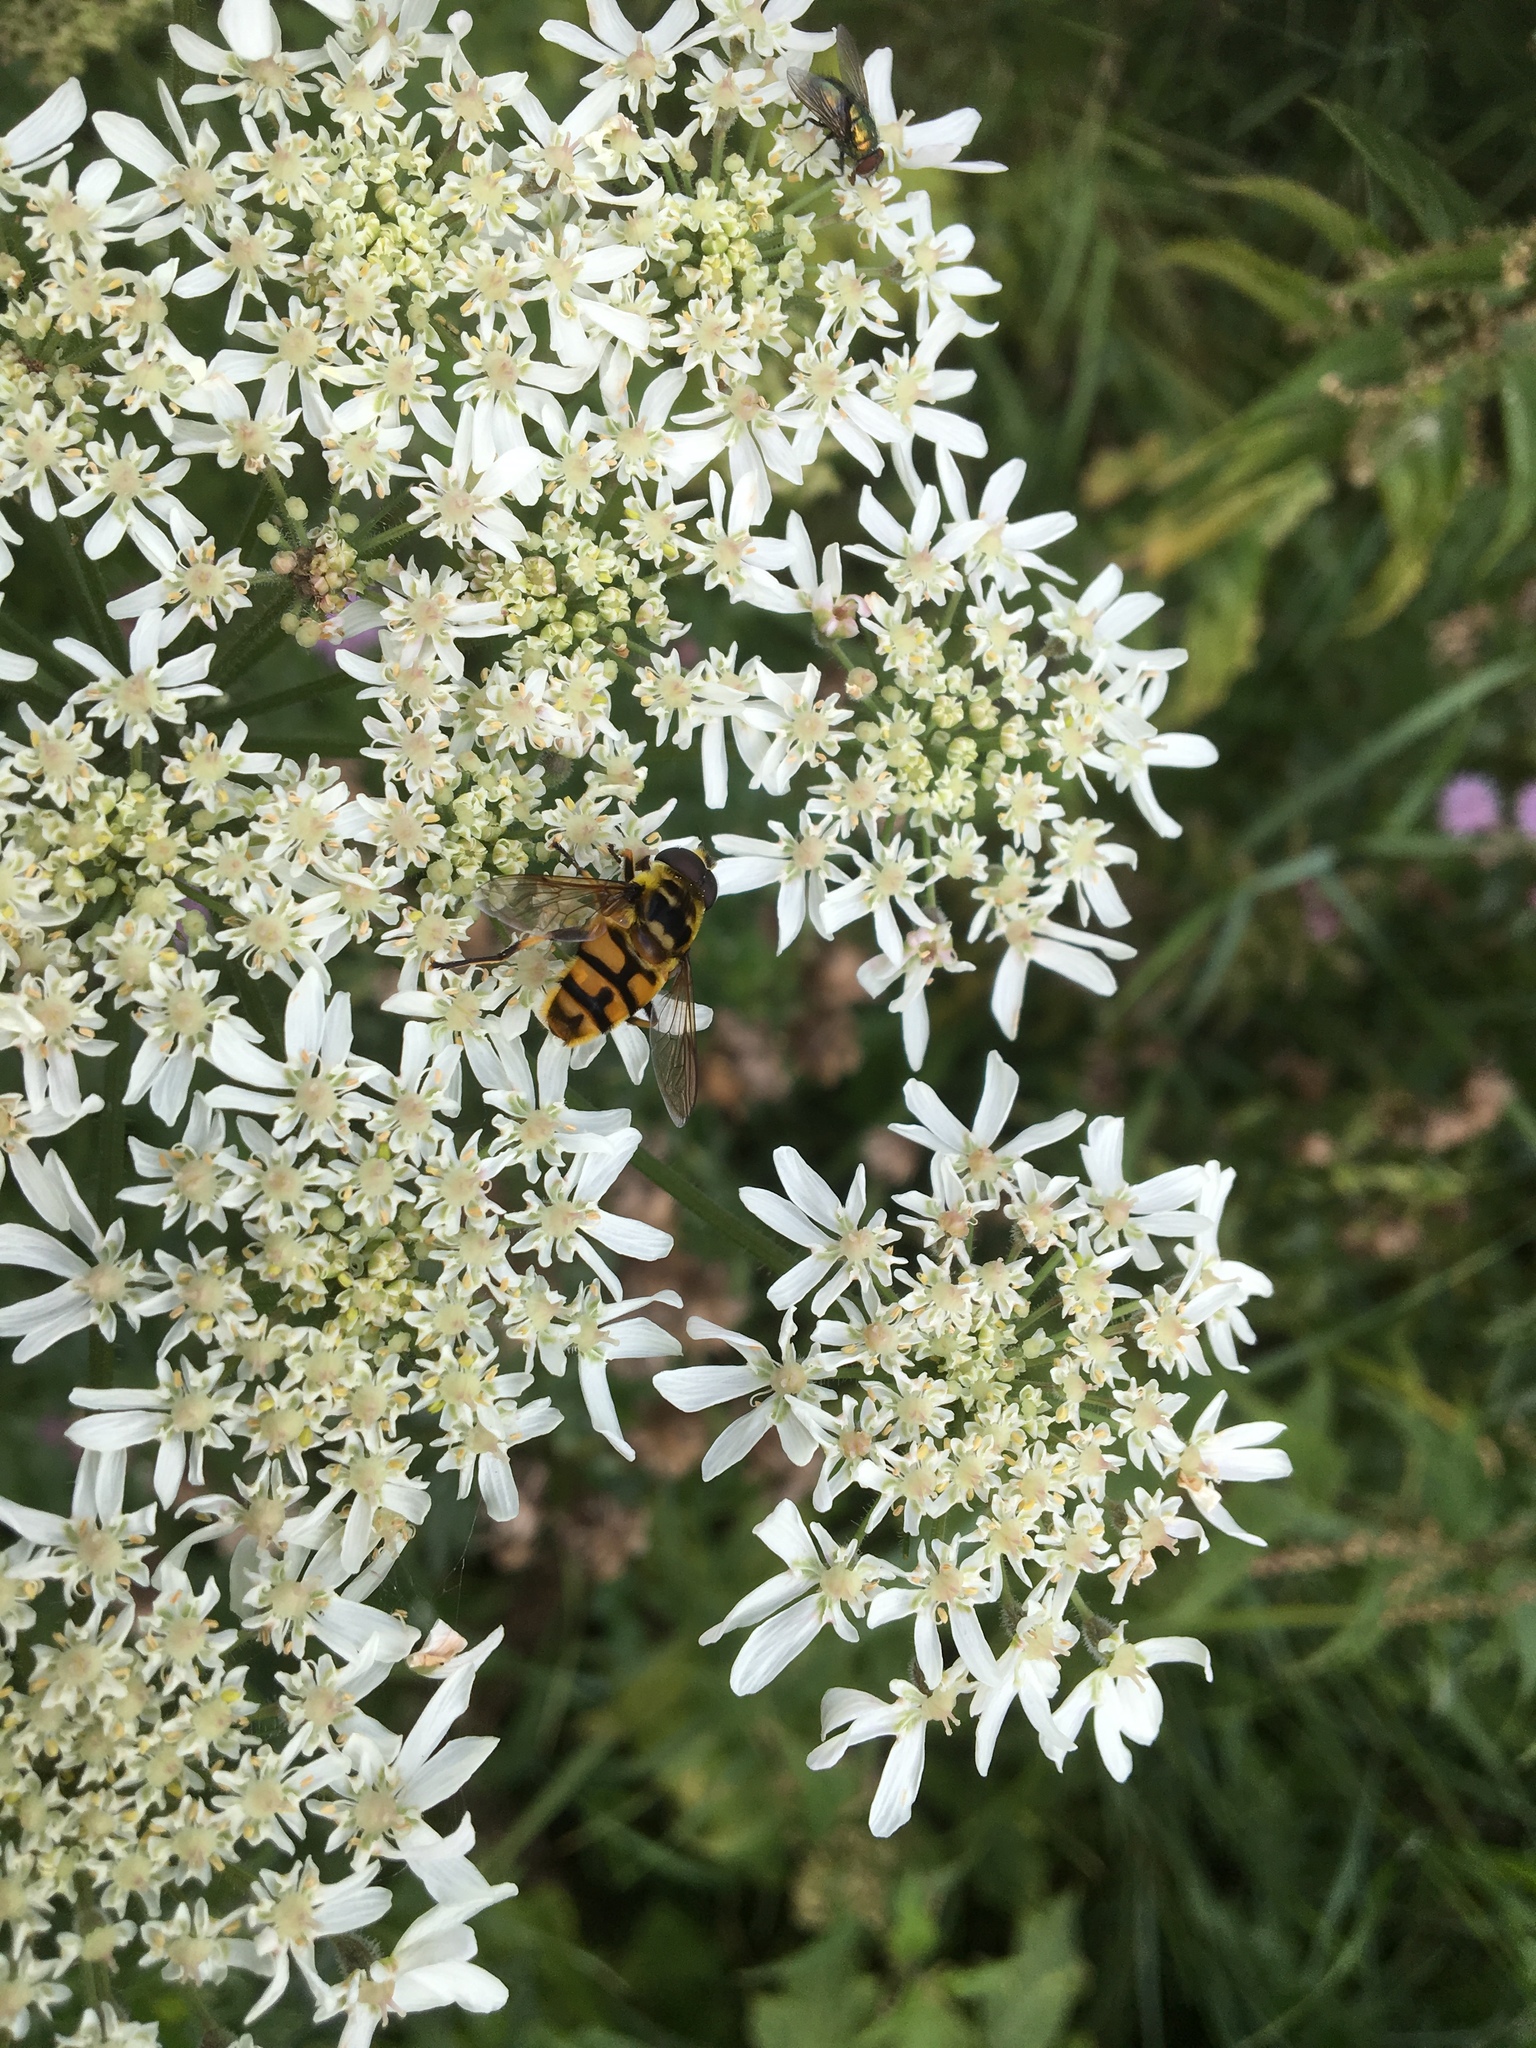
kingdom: Animalia
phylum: Arthropoda
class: Insecta
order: Diptera
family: Syrphidae
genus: Myathropa
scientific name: Myathropa florea
